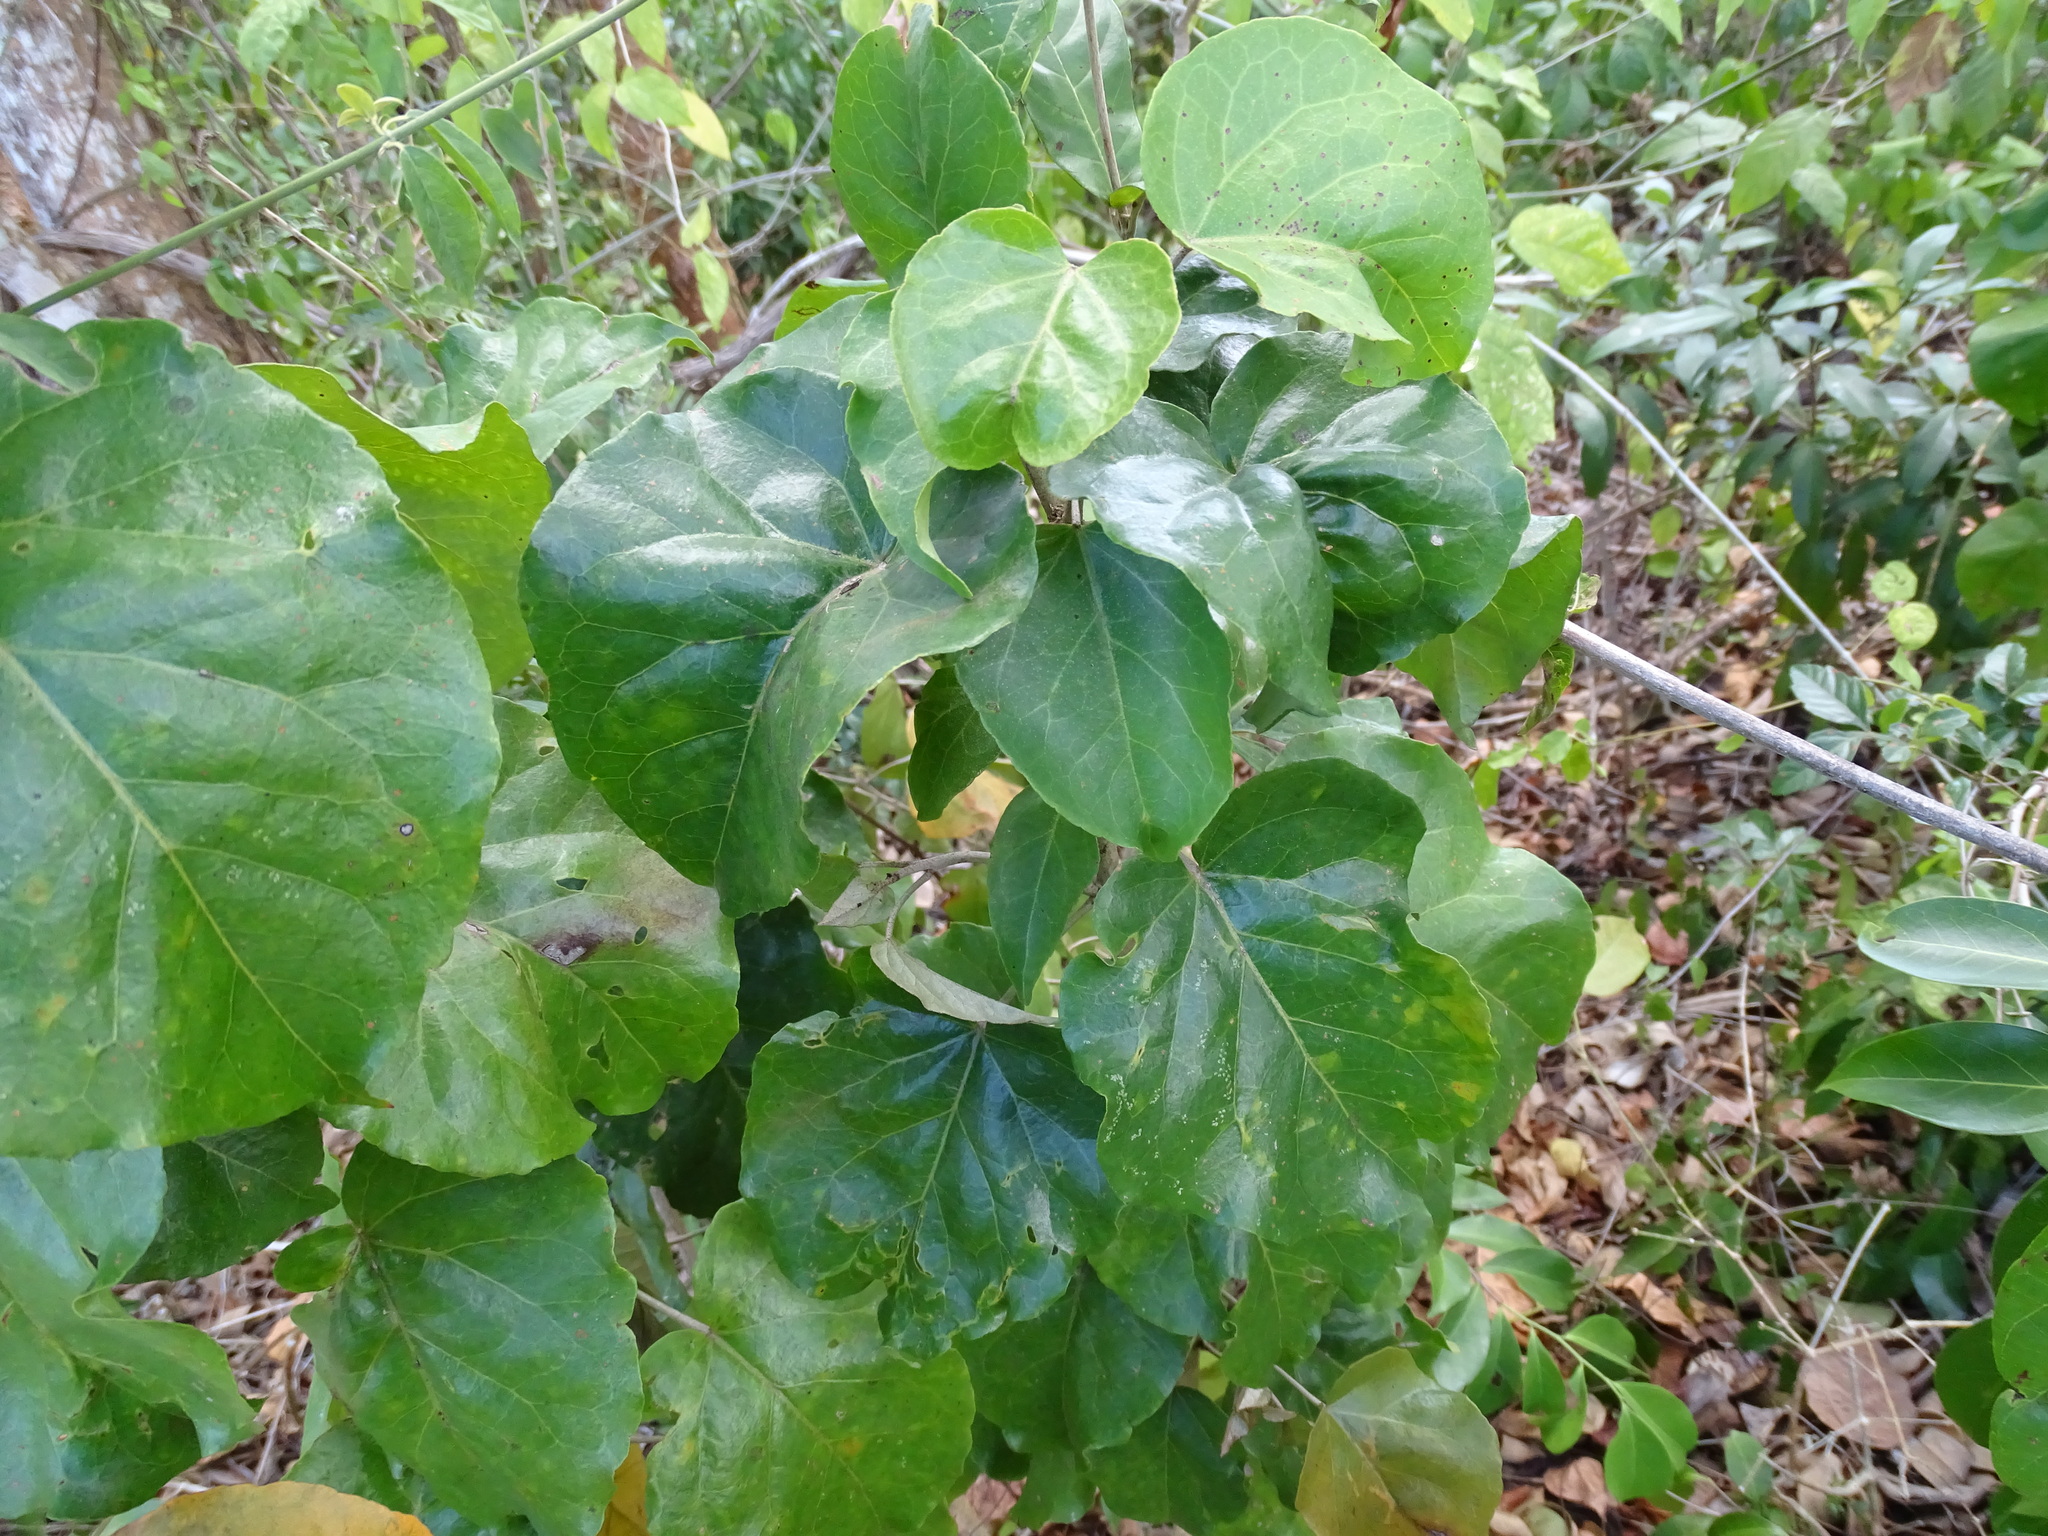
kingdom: Plantae
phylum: Tracheophyta
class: Magnoliopsida
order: Malpighiales
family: Euphorbiaceae
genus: Croton
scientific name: Croton arboreus
